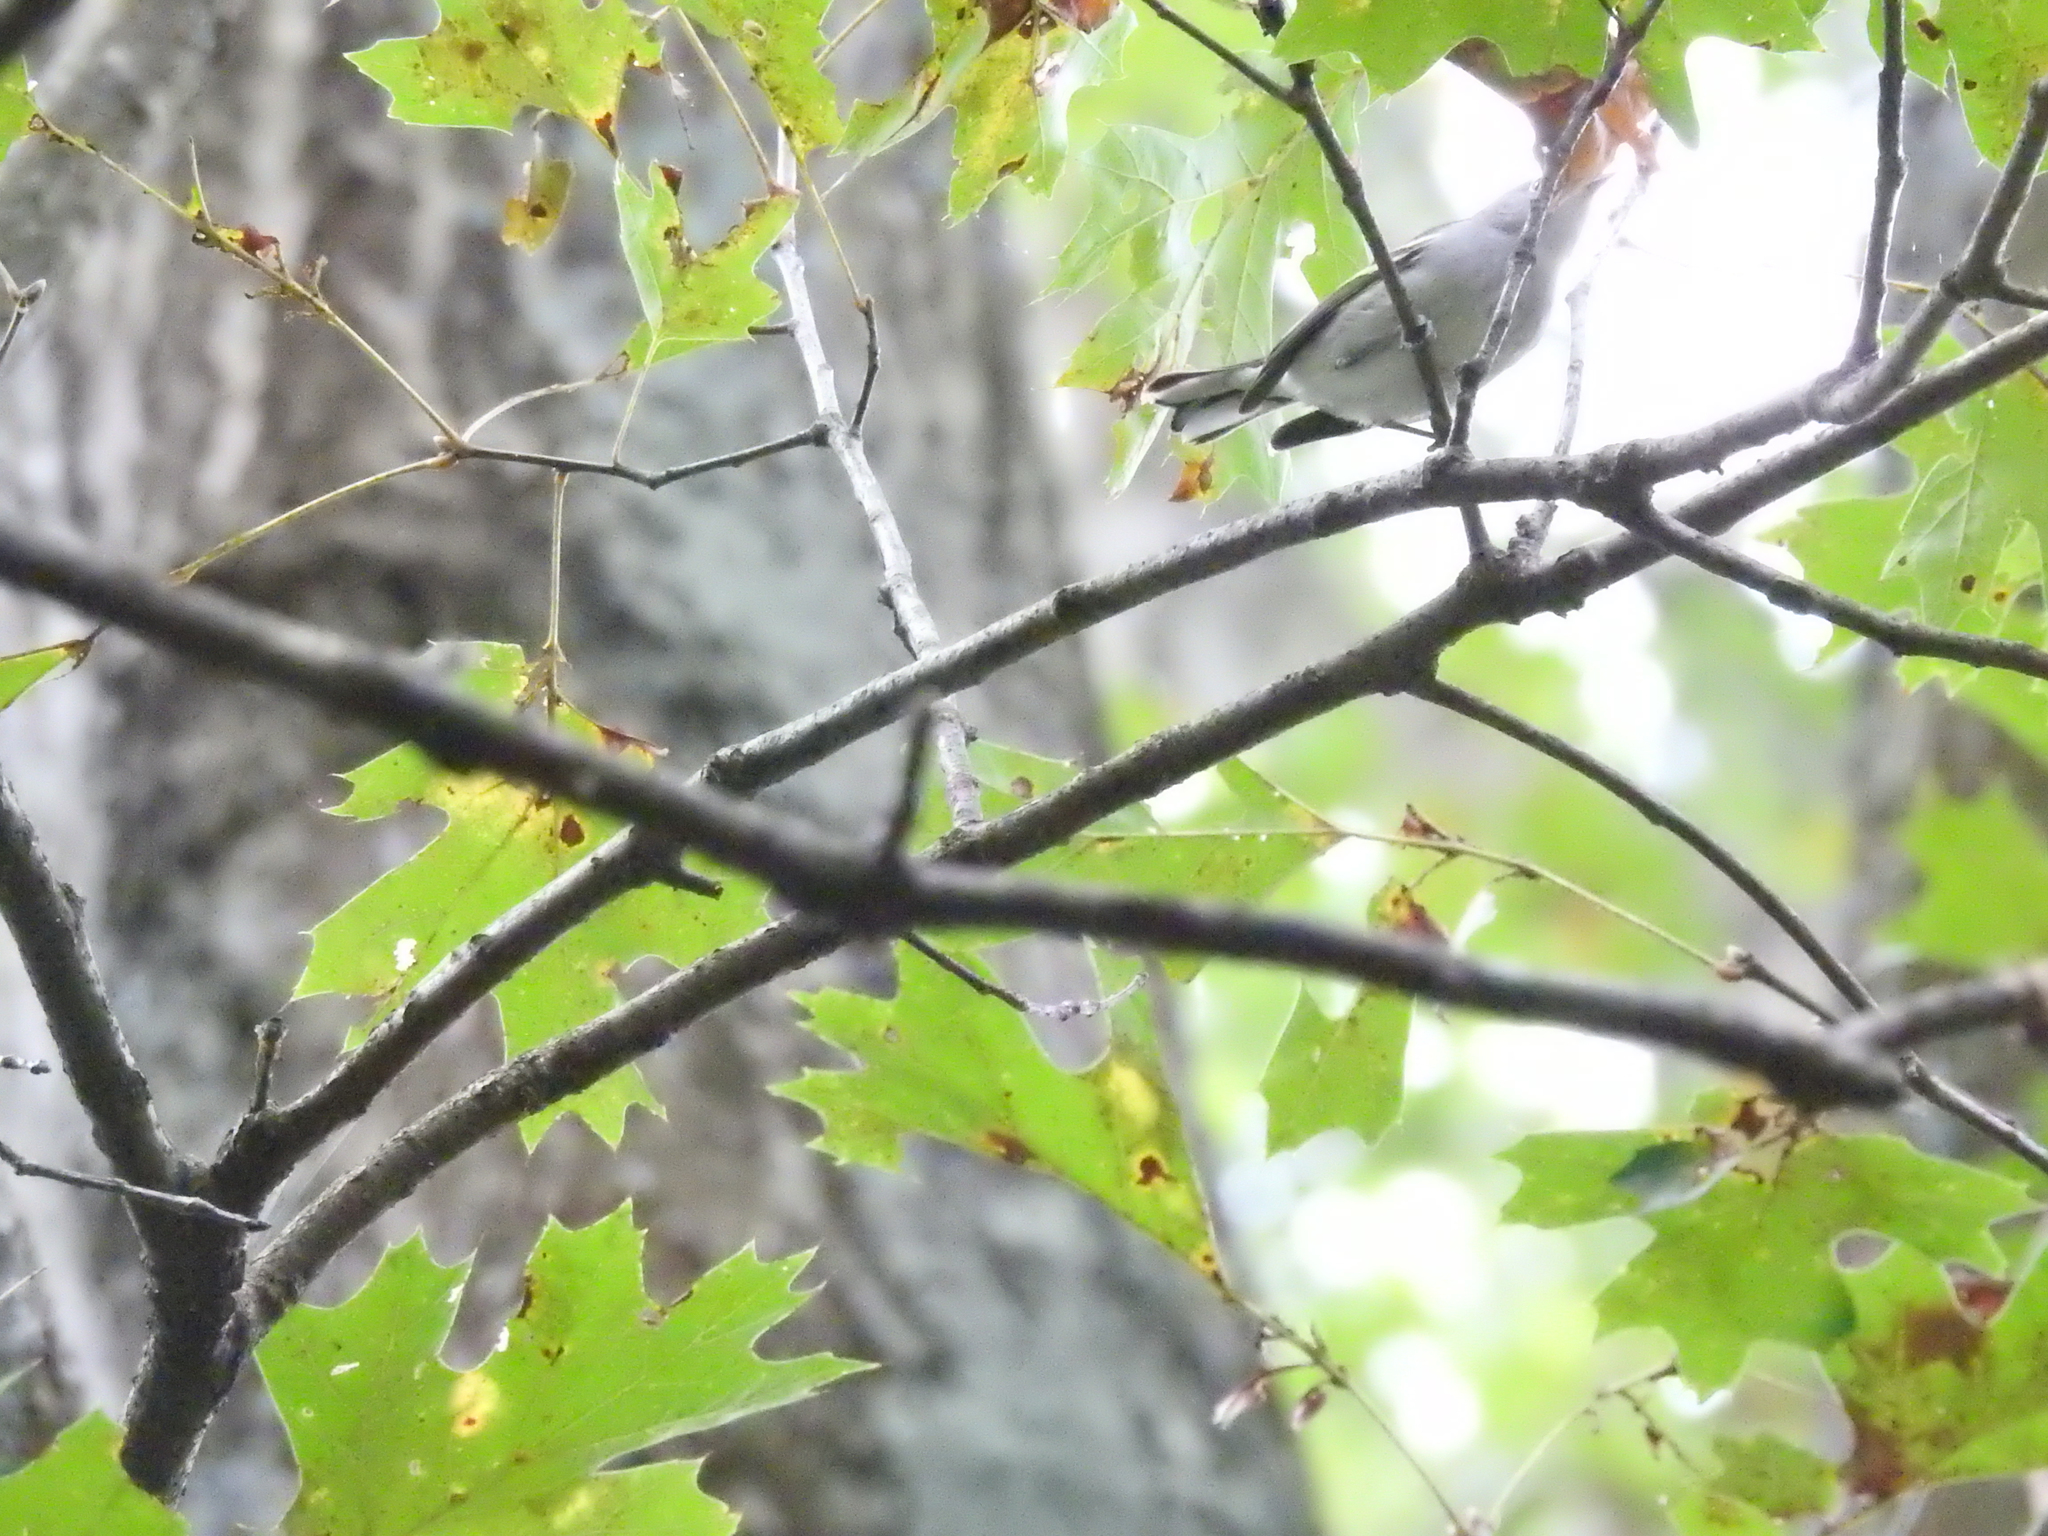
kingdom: Animalia
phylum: Chordata
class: Aves
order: Passeriformes
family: Polioptilidae
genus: Polioptila
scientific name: Polioptila caerulea
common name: Blue-gray gnatcatcher
